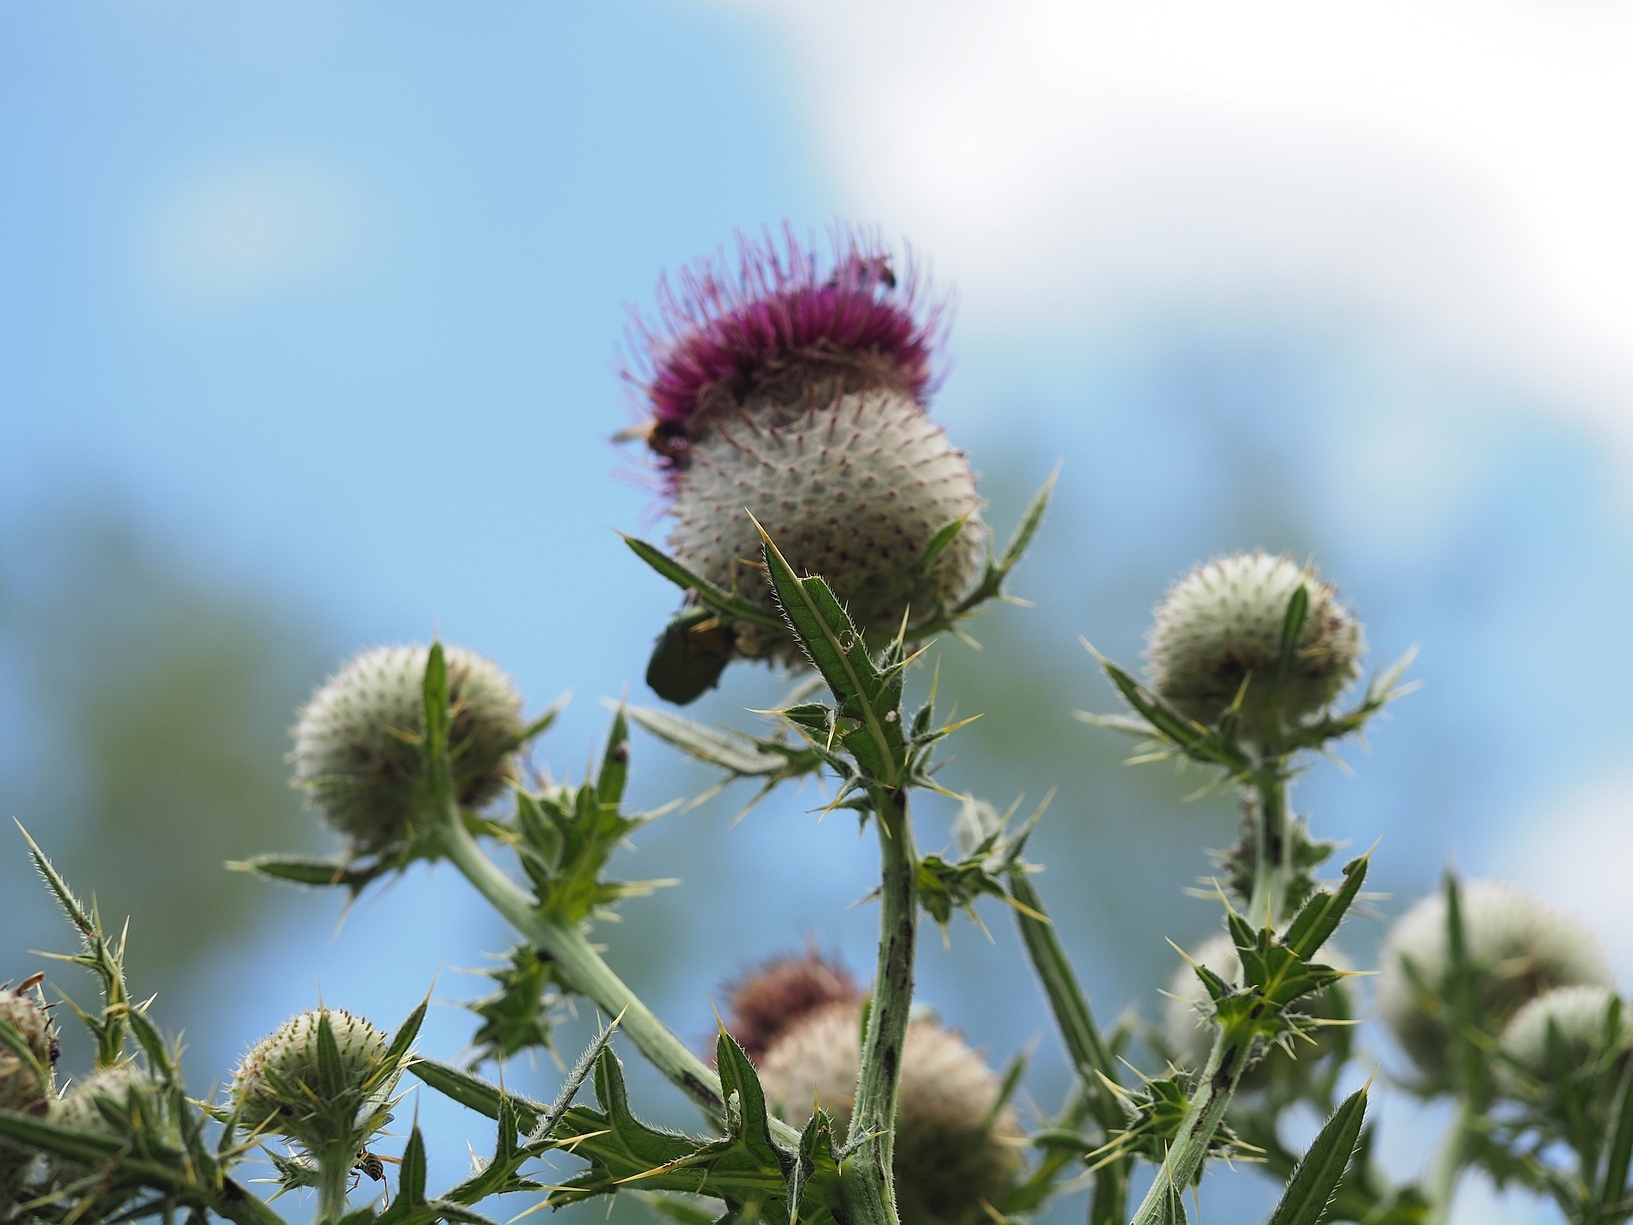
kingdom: Plantae
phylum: Tracheophyta
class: Magnoliopsida
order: Asterales
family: Asteraceae
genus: Lophiolepis
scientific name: Lophiolepis eriophora
